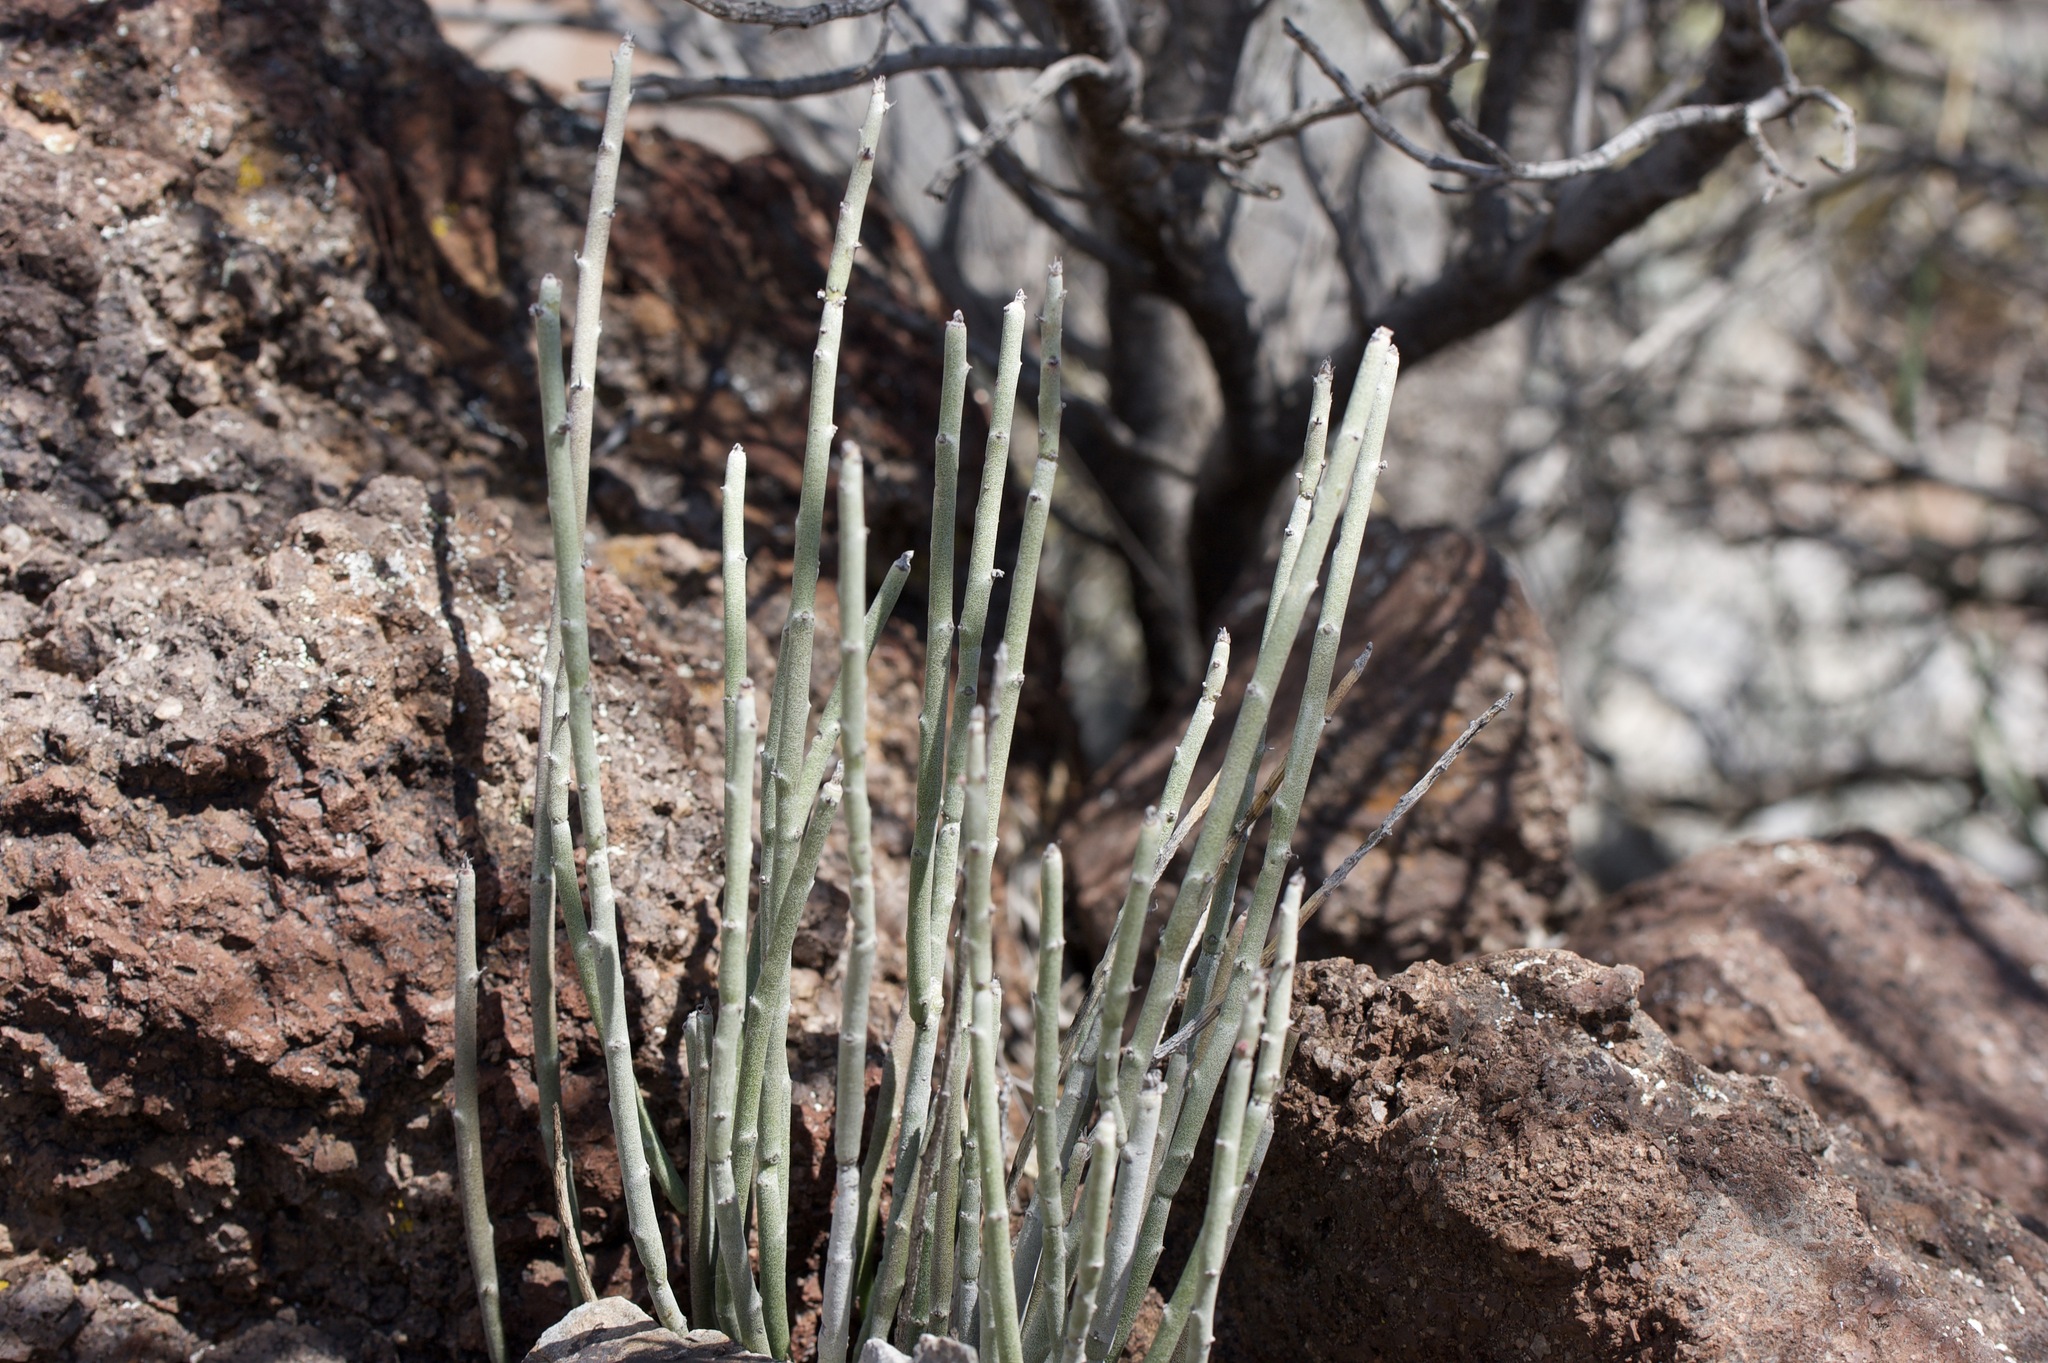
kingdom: Plantae
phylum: Tracheophyta
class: Magnoliopsida
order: Malpighiales
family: Euphorbiaceae
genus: Euphorbia
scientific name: Euphorbia antisyphilitica
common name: Candelilla
